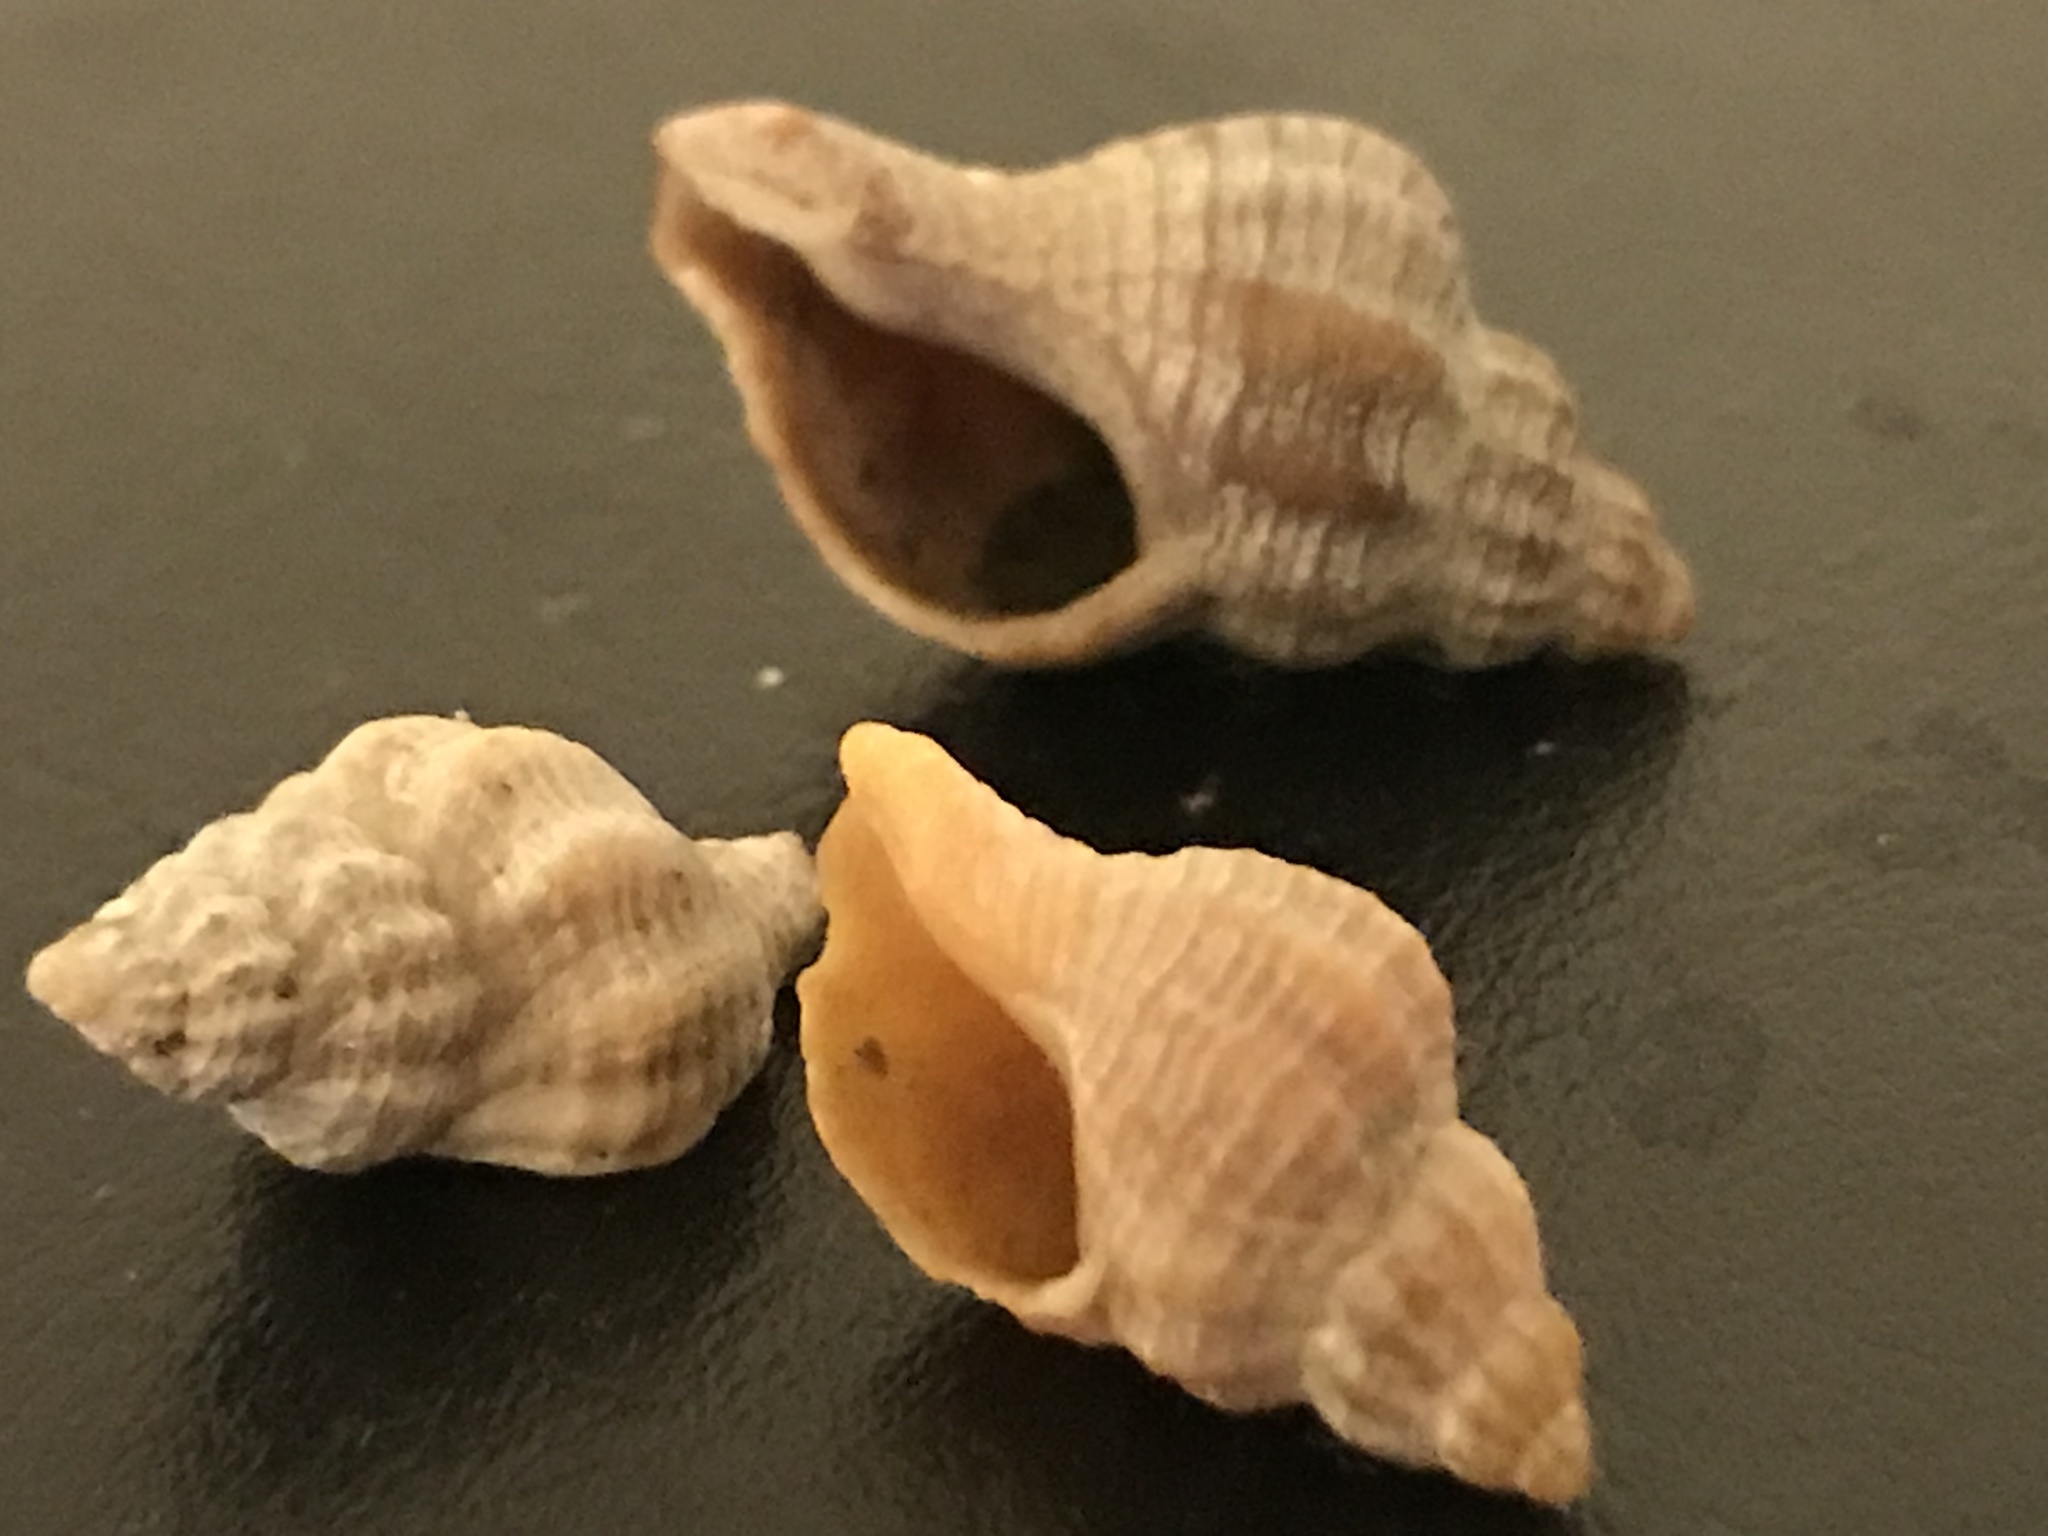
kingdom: Animalia
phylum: Mollusca
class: Gastropoda
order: Neogastropoda
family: Muricidae
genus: Urosalpinx
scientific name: Urosalpinx cinerea
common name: American sting winkle
